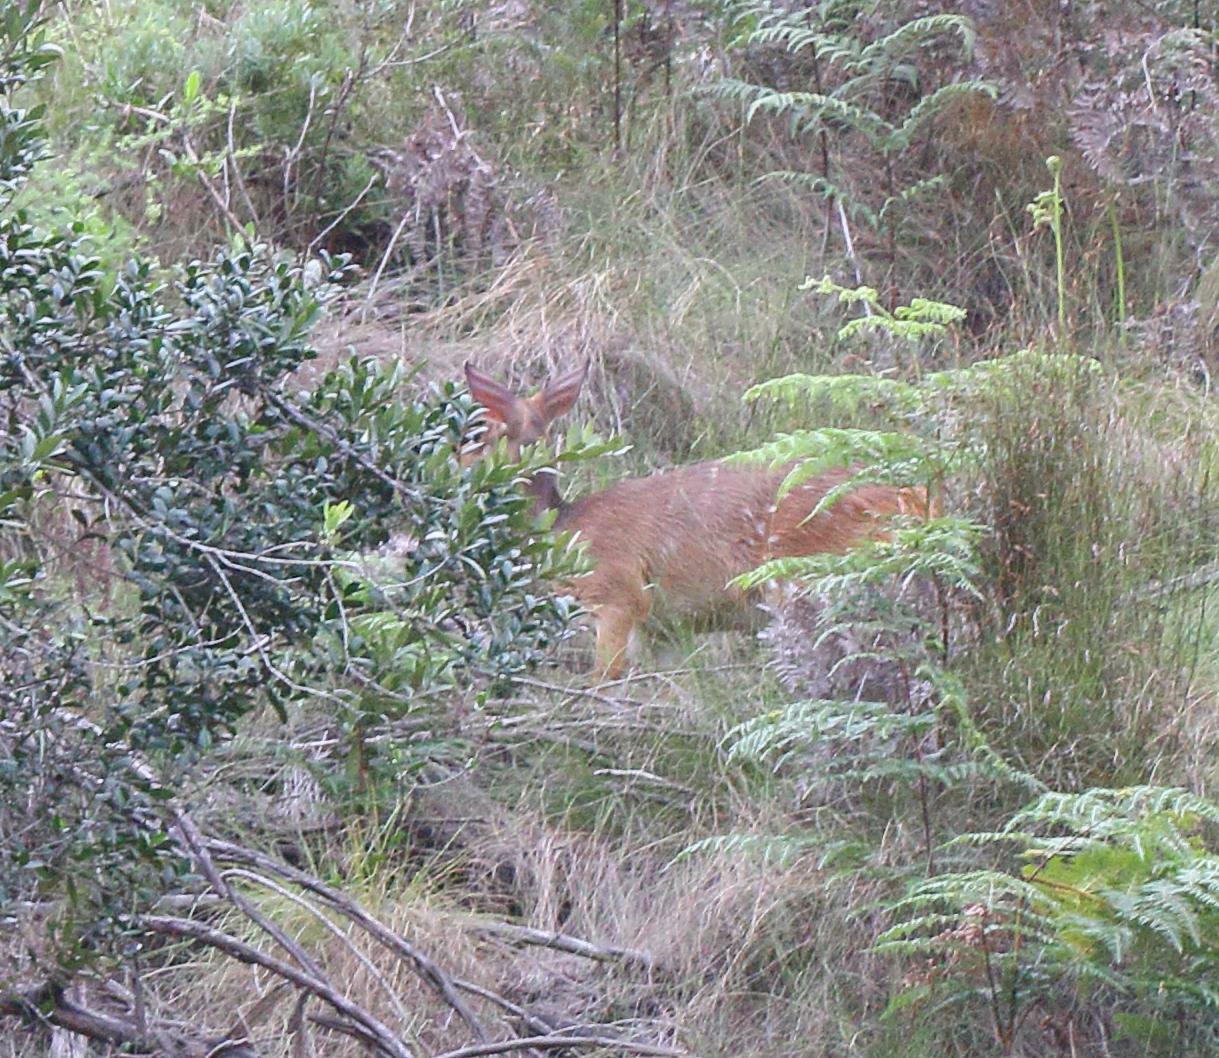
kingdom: Animalia
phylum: Chordata
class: Mammalia
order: Artiodactyla
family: Bovidae
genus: Tragelaphus
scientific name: Tragelaphus scriptus
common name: Bushbuck
